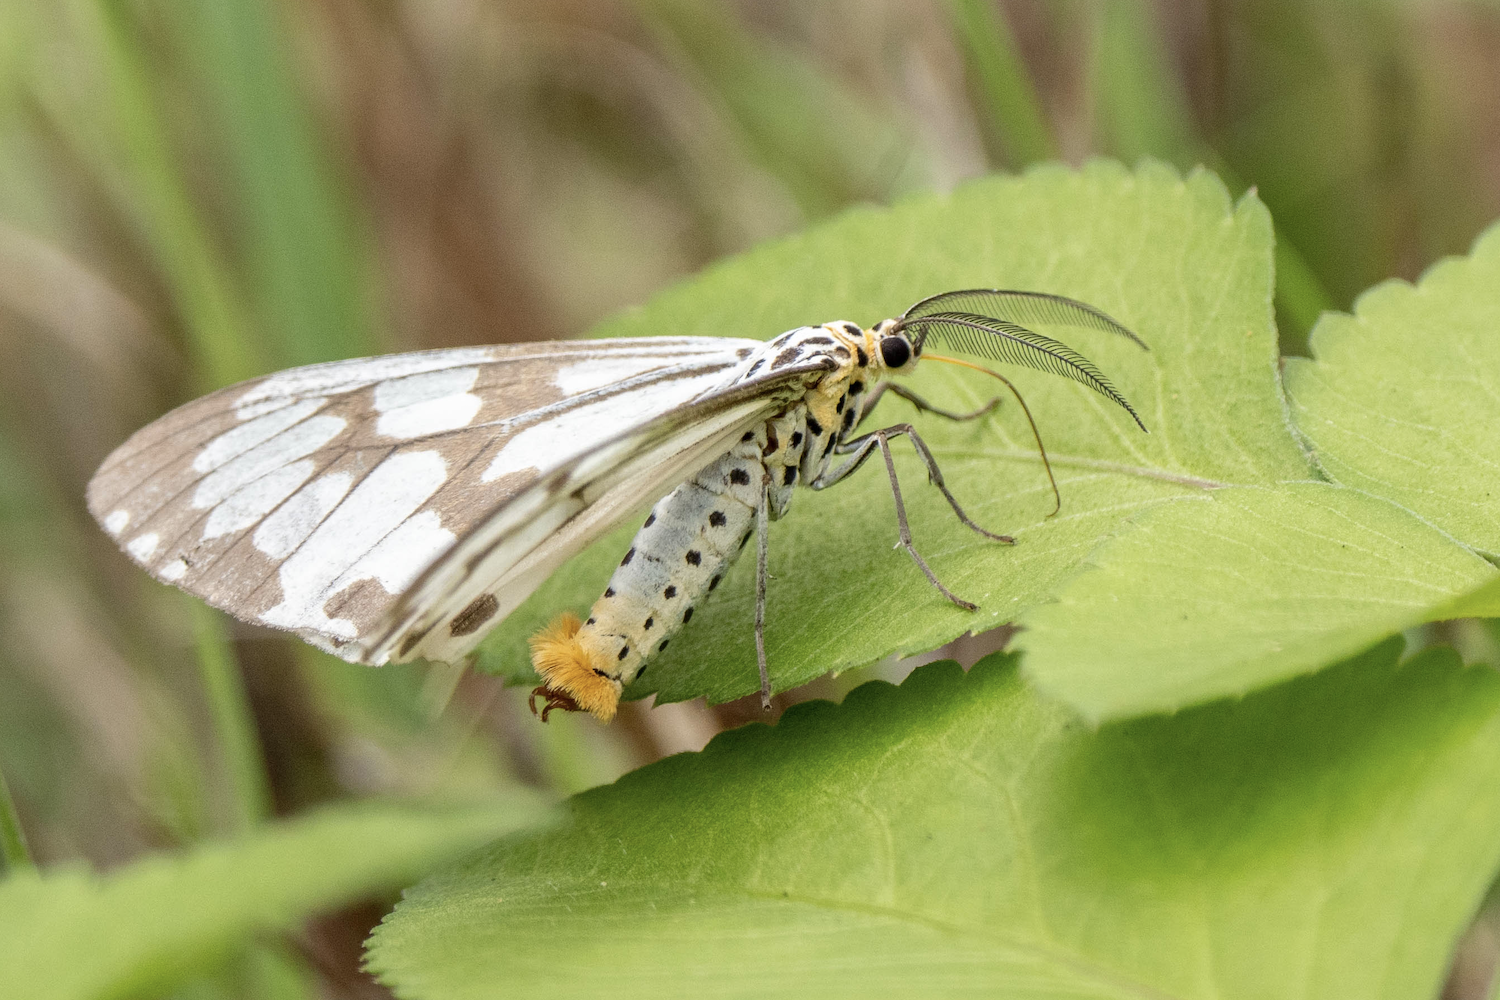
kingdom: Animalia
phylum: Arthropoda
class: Insecta
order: Lepidoptera
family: Erebidae
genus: Nyctemera
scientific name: Nyctemera adversata
